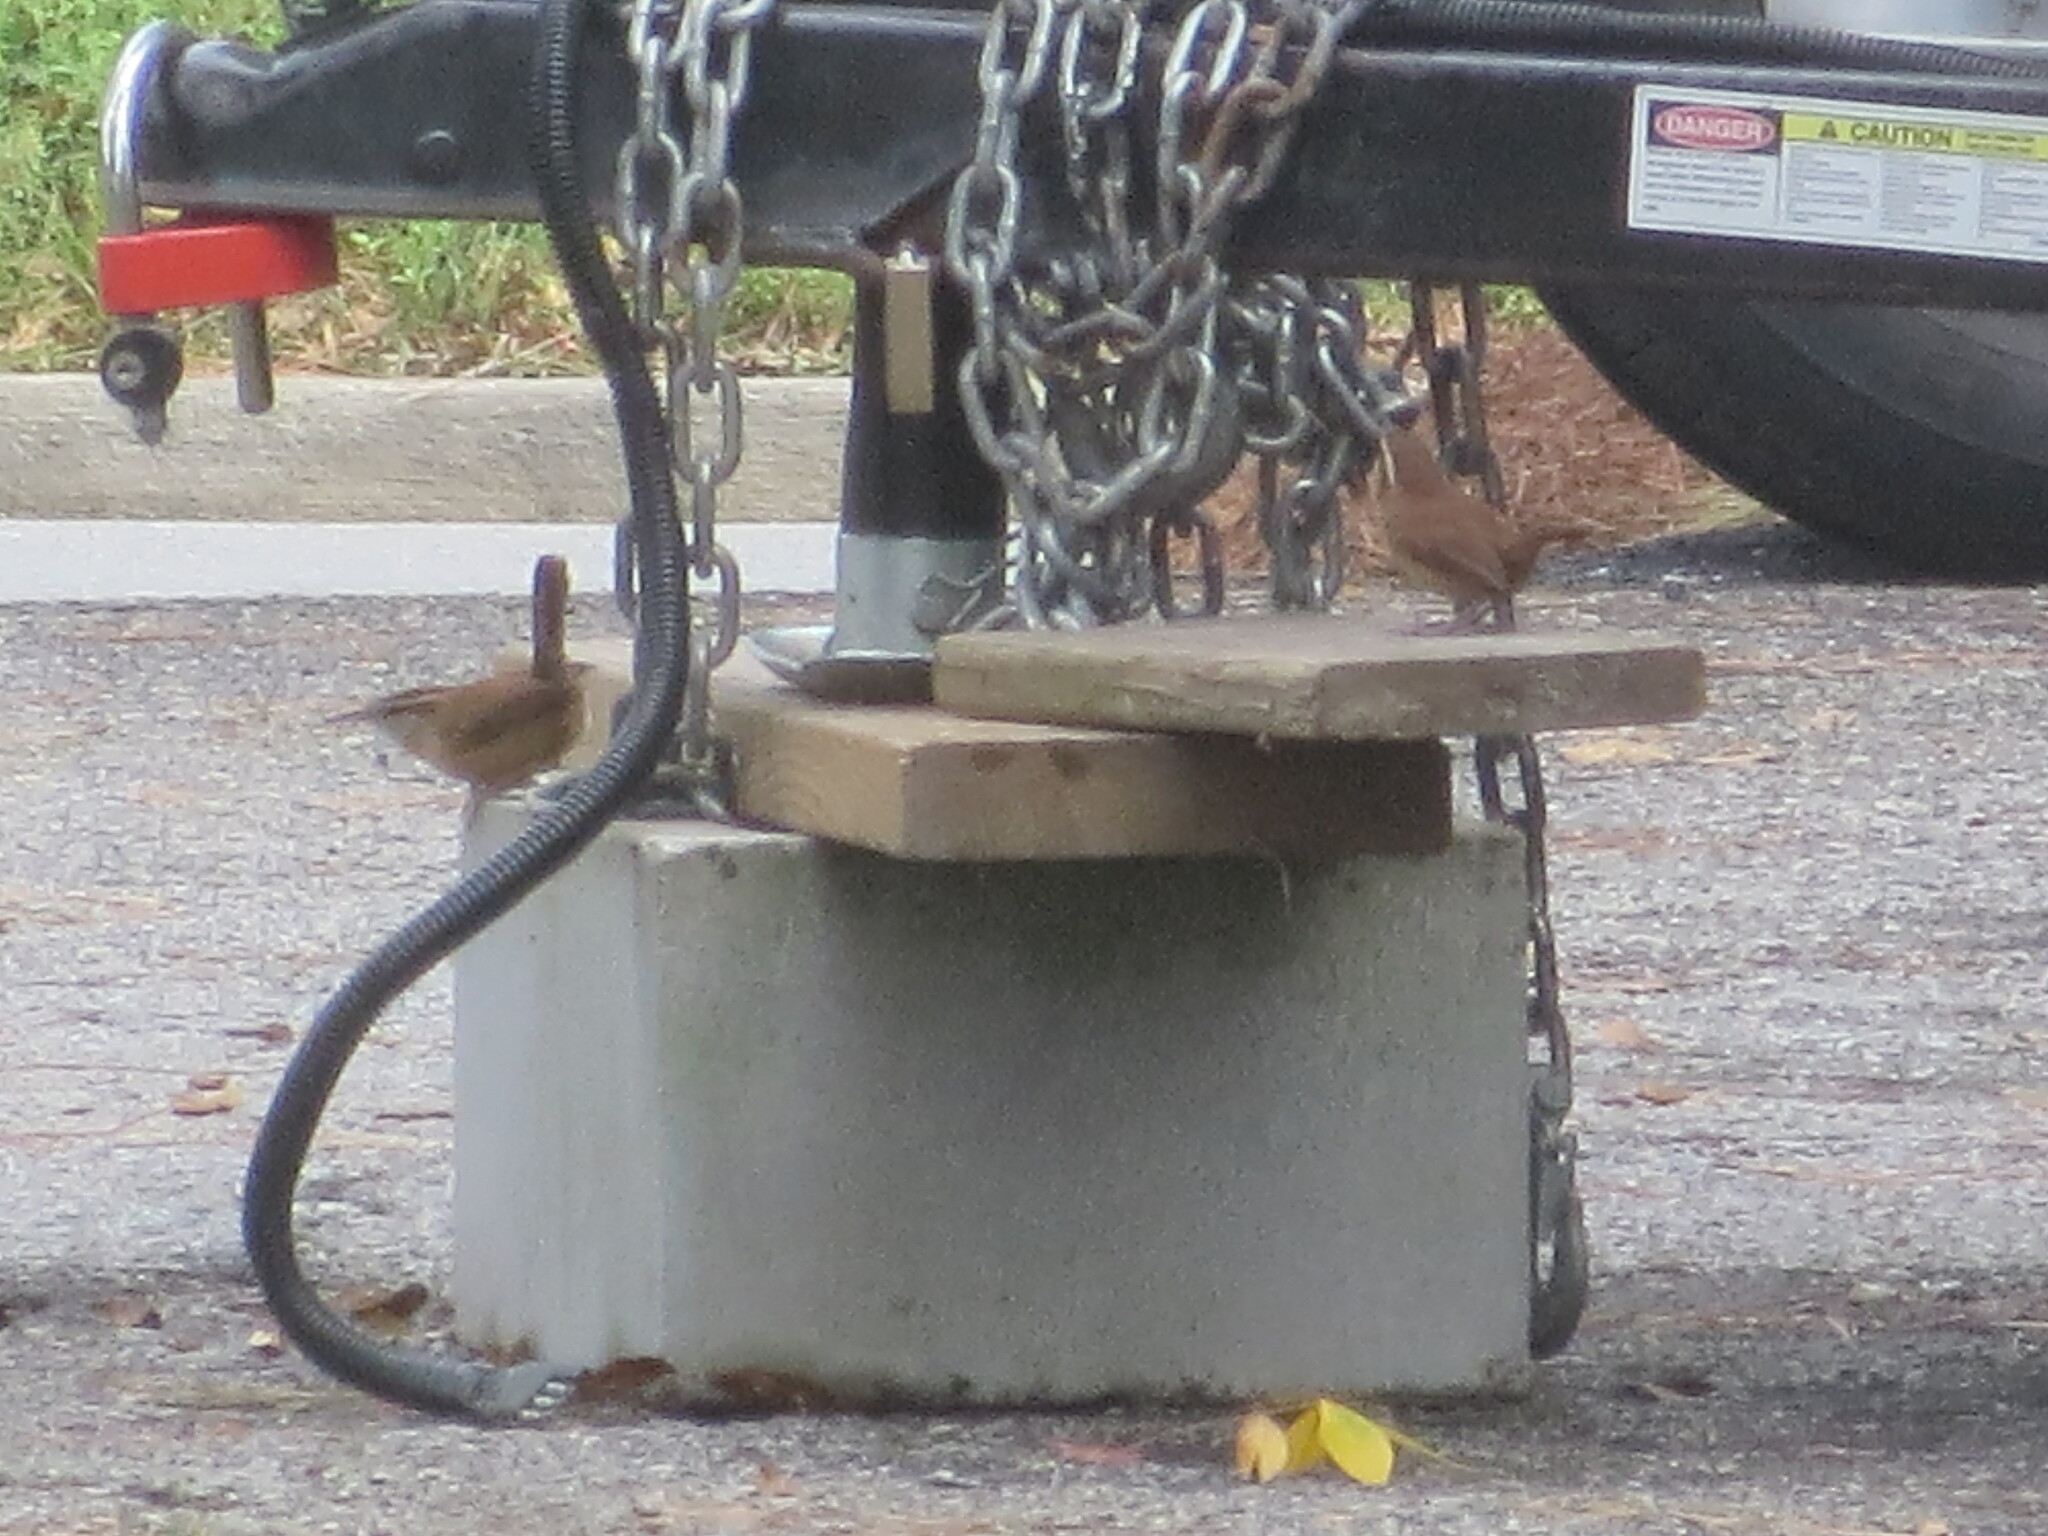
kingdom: Animalia
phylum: Chordata
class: Aves
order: Passeriformes
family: Troglodytidae
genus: Thryothorus
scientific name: Thryothorus ludovicianus
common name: Carolina wren
